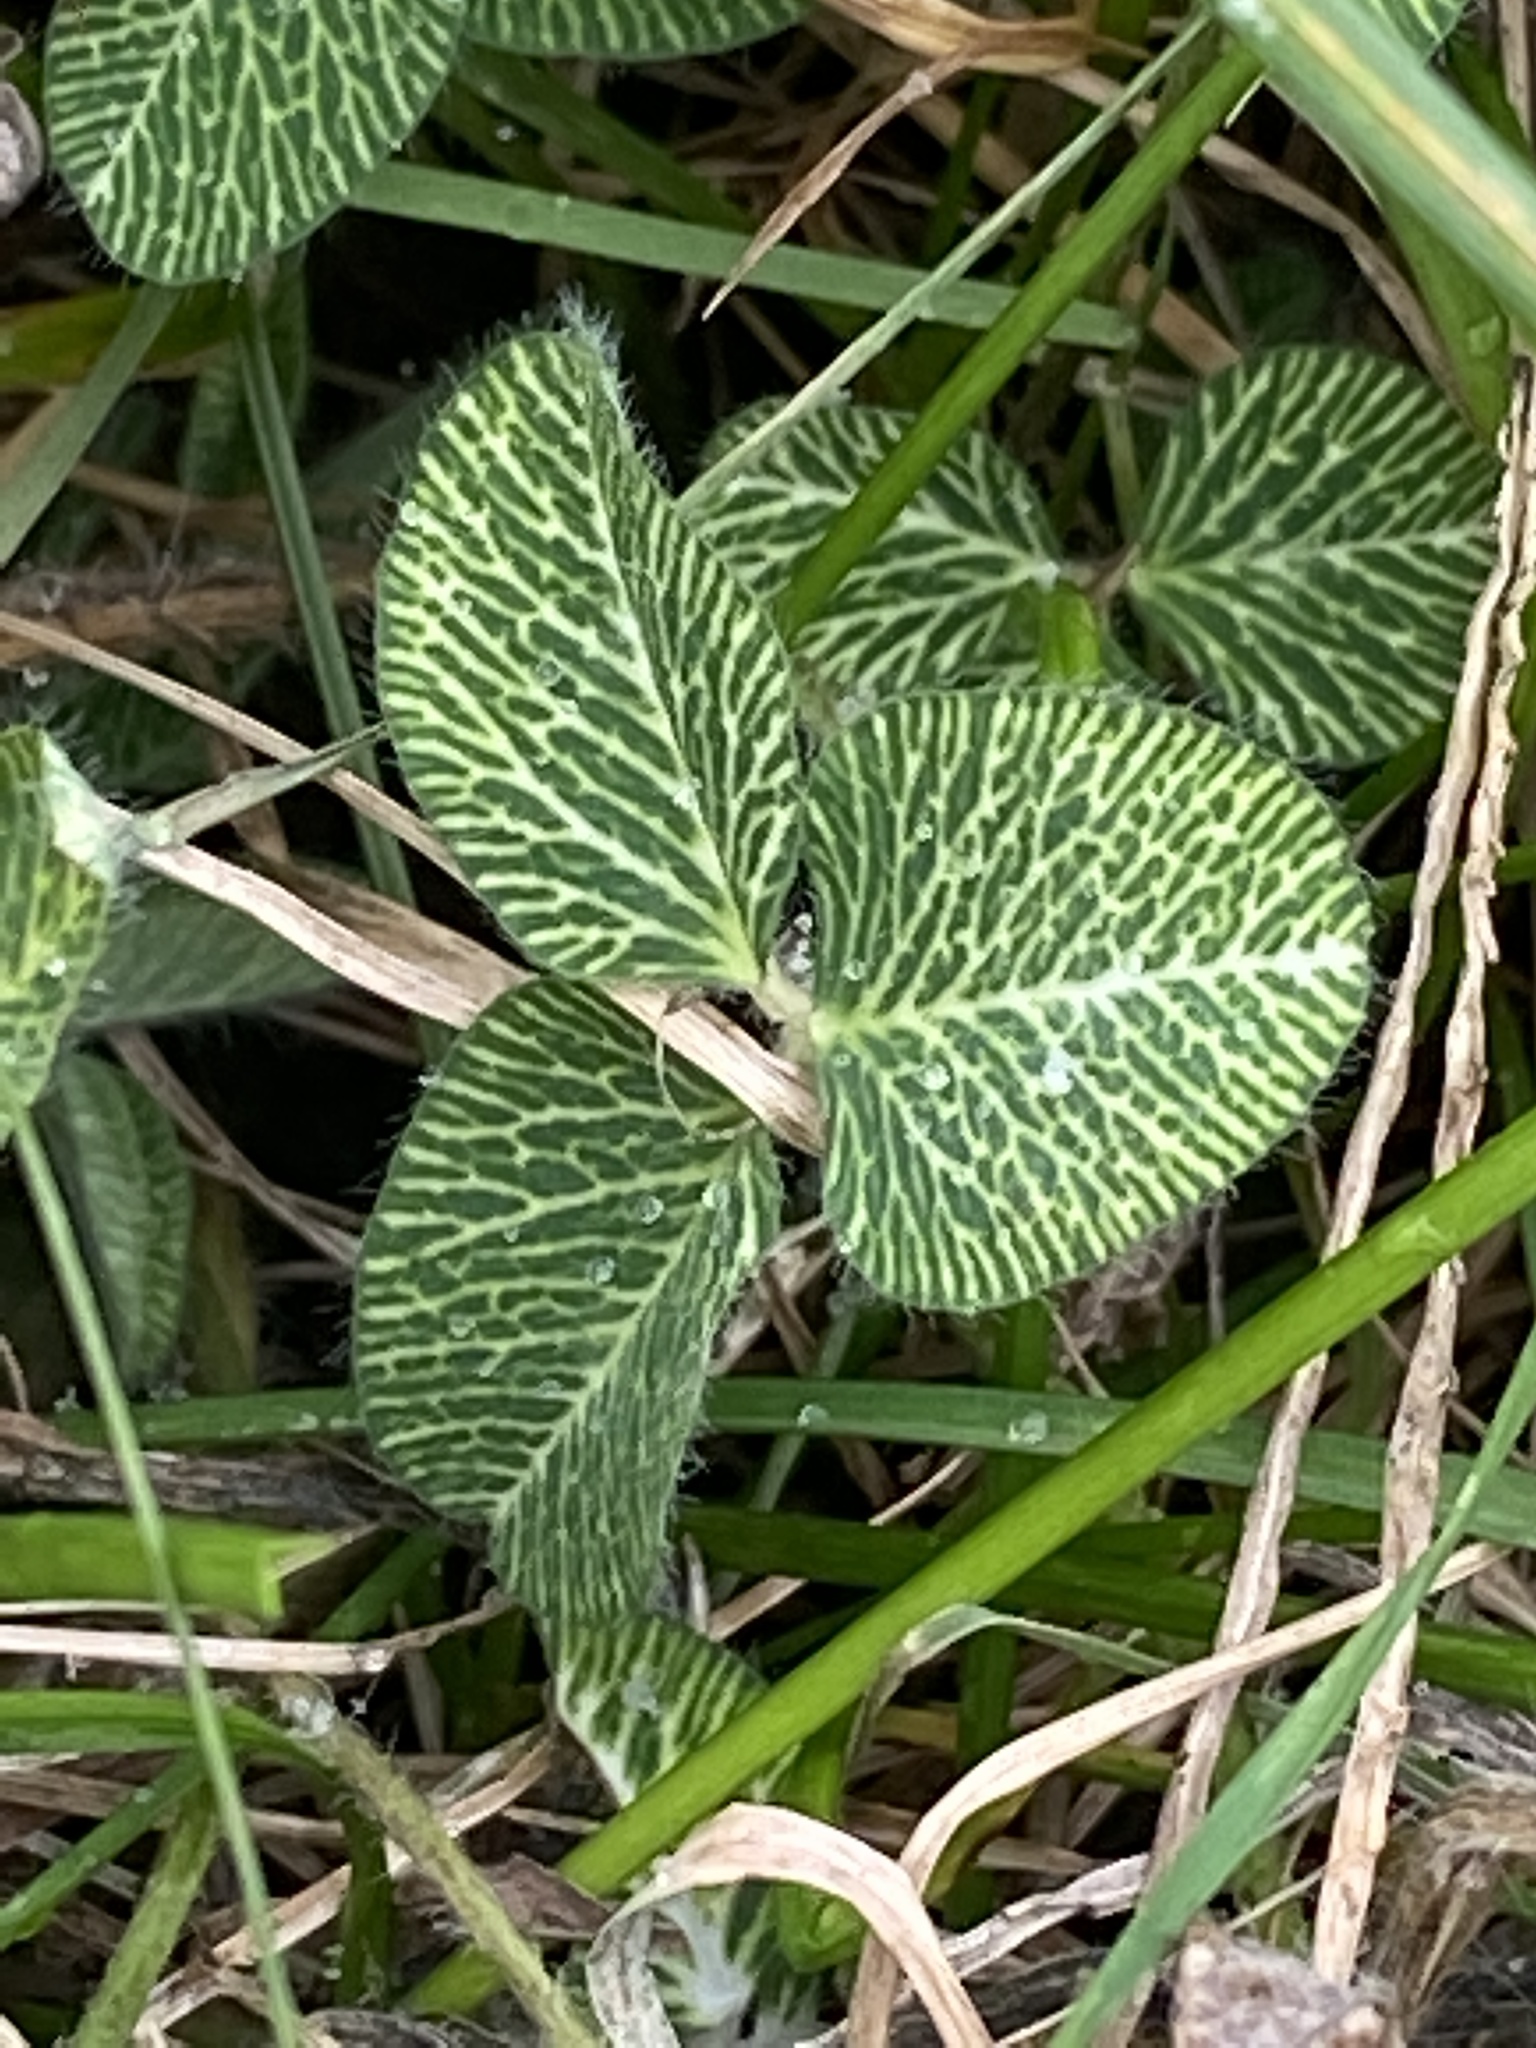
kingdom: Plantae
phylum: Tracheophyta
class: Magnoliopsida
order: Fabales
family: Fabaceae
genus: Trifolium
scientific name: Trifolium pratense
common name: Red clover
